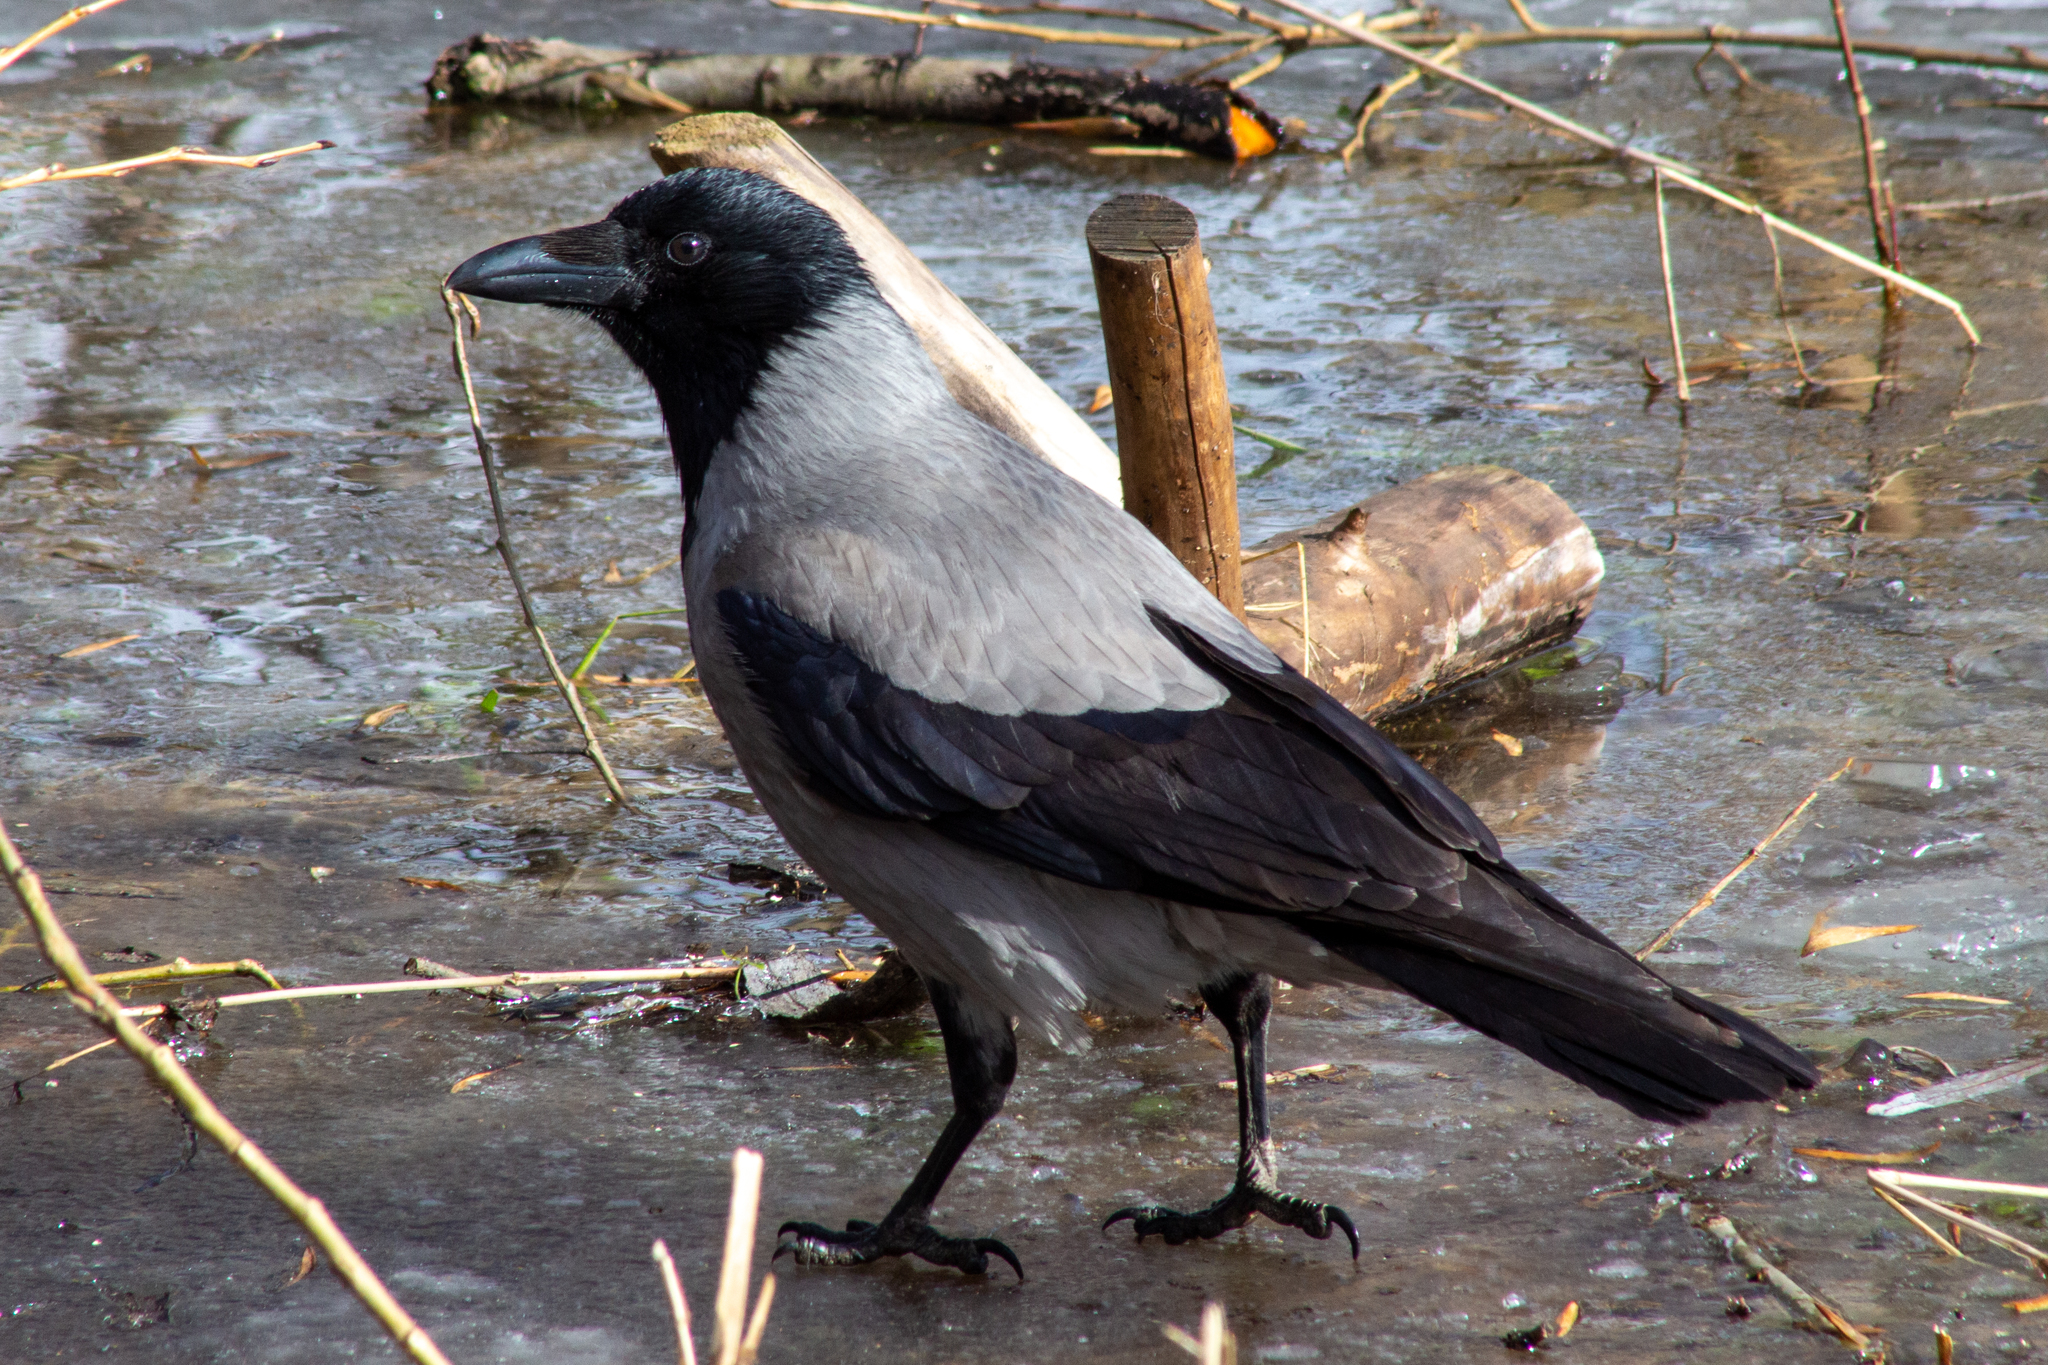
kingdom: Animalia
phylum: Chordata
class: Aves
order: Passeriformes
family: Corvidae
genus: Corvus
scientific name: Corvus cornix
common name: Hooded crow
